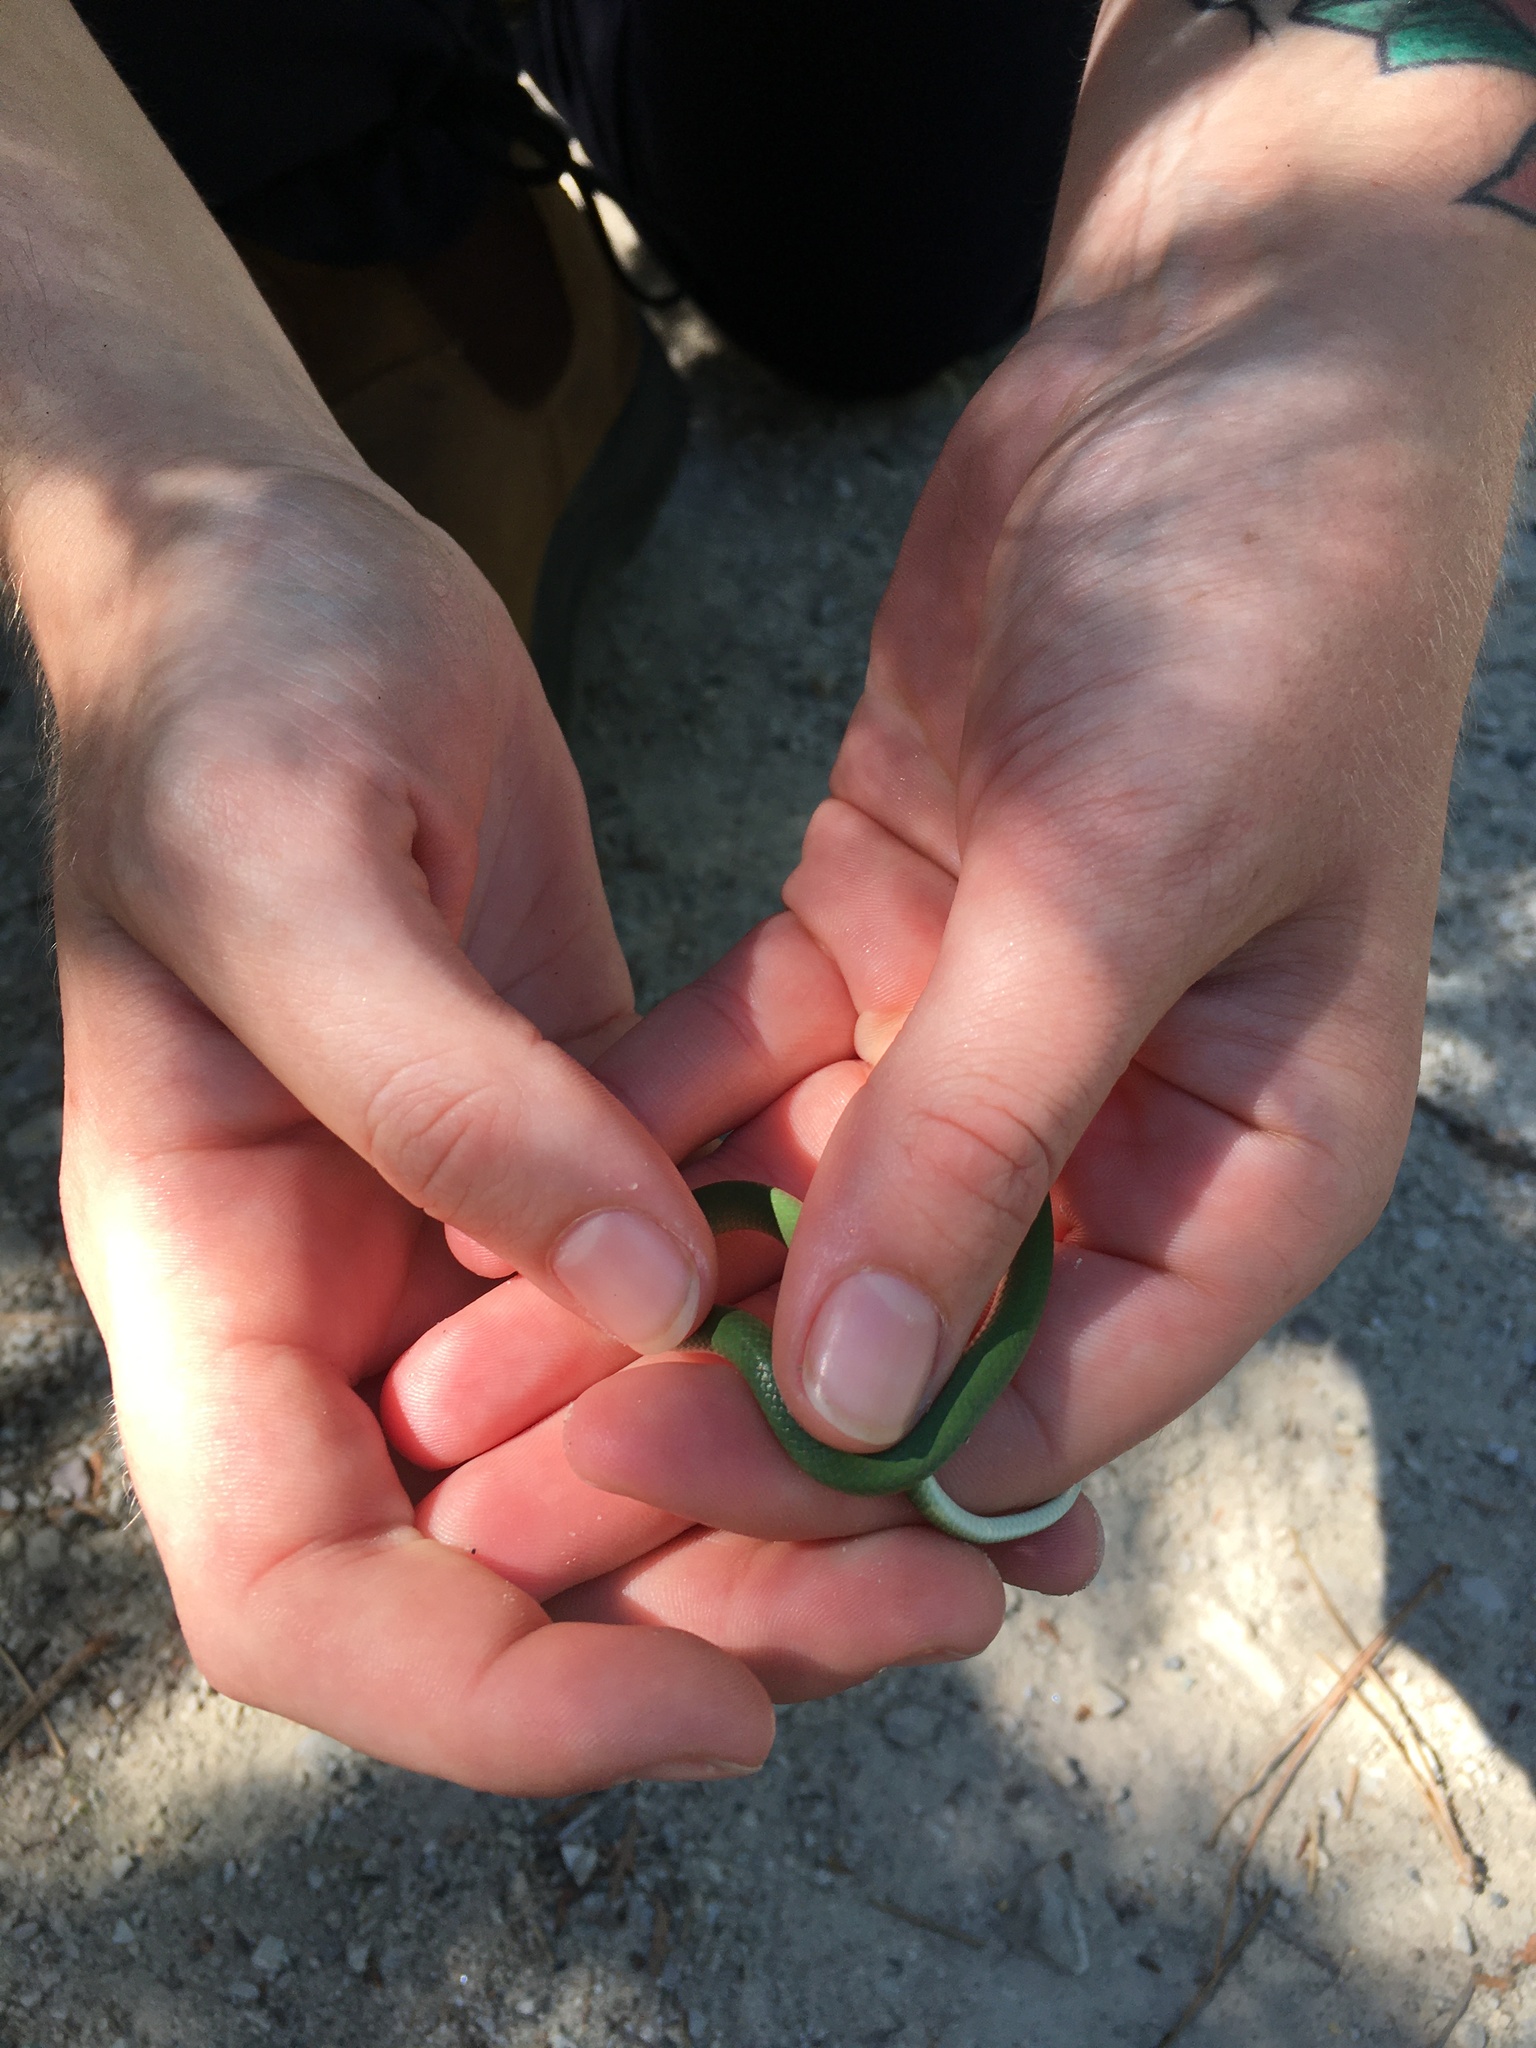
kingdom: Animalia
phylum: Chordata
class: Squamata
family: Colubridae
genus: Opheodrys
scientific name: Opheodrys vernalis
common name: Smooth green snake
